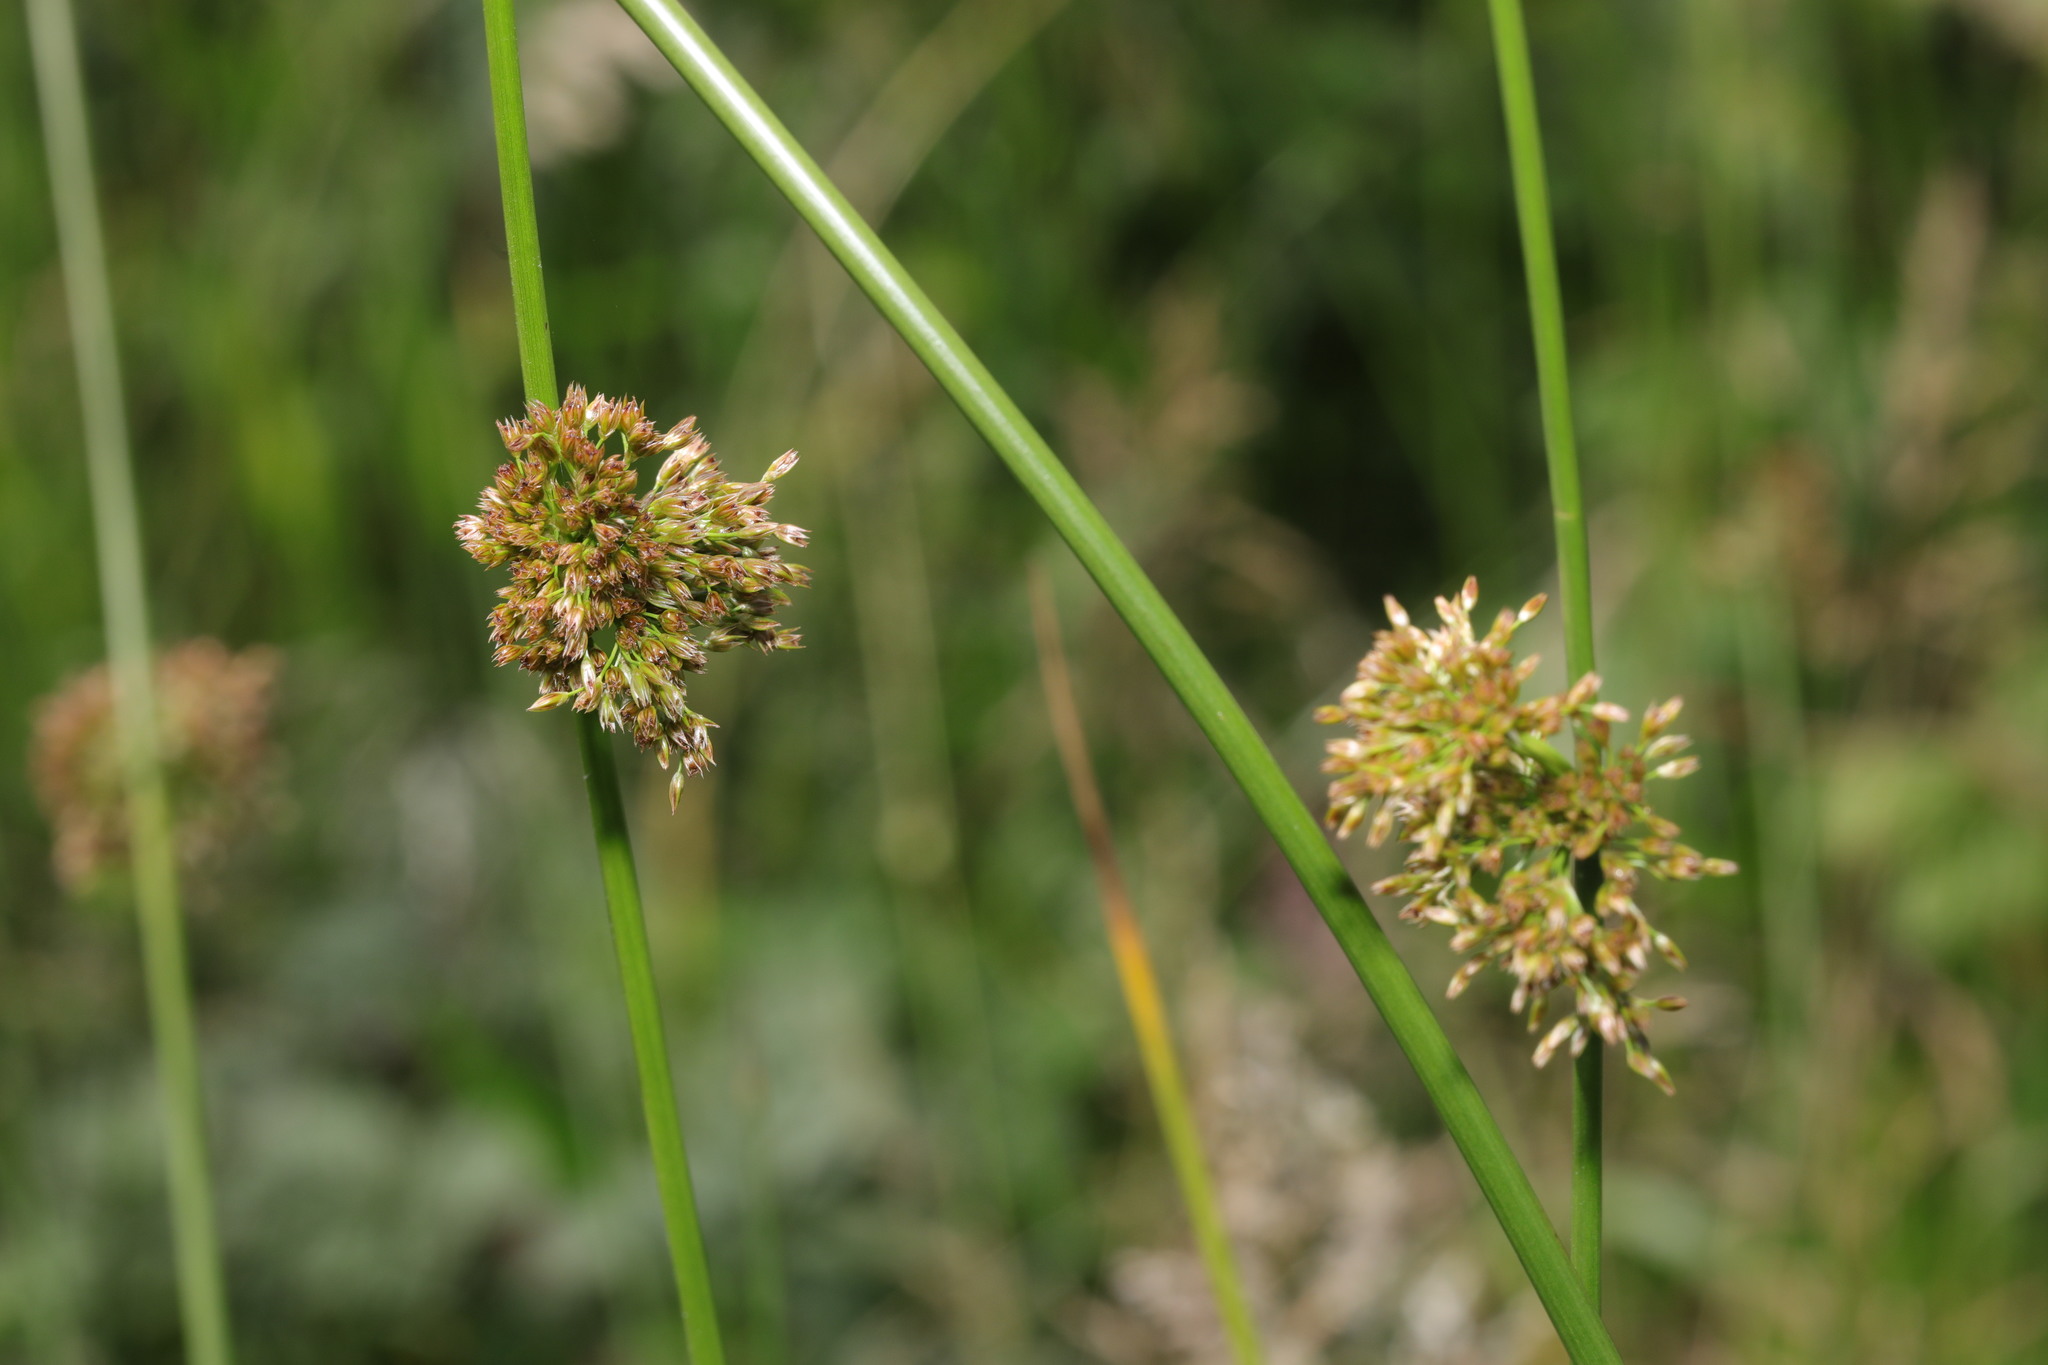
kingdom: Plantae
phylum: Tracheophyta
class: Liliopsida
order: Poales
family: Juncaceae
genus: Juncus
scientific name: Juncus effusus
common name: Soft rush
